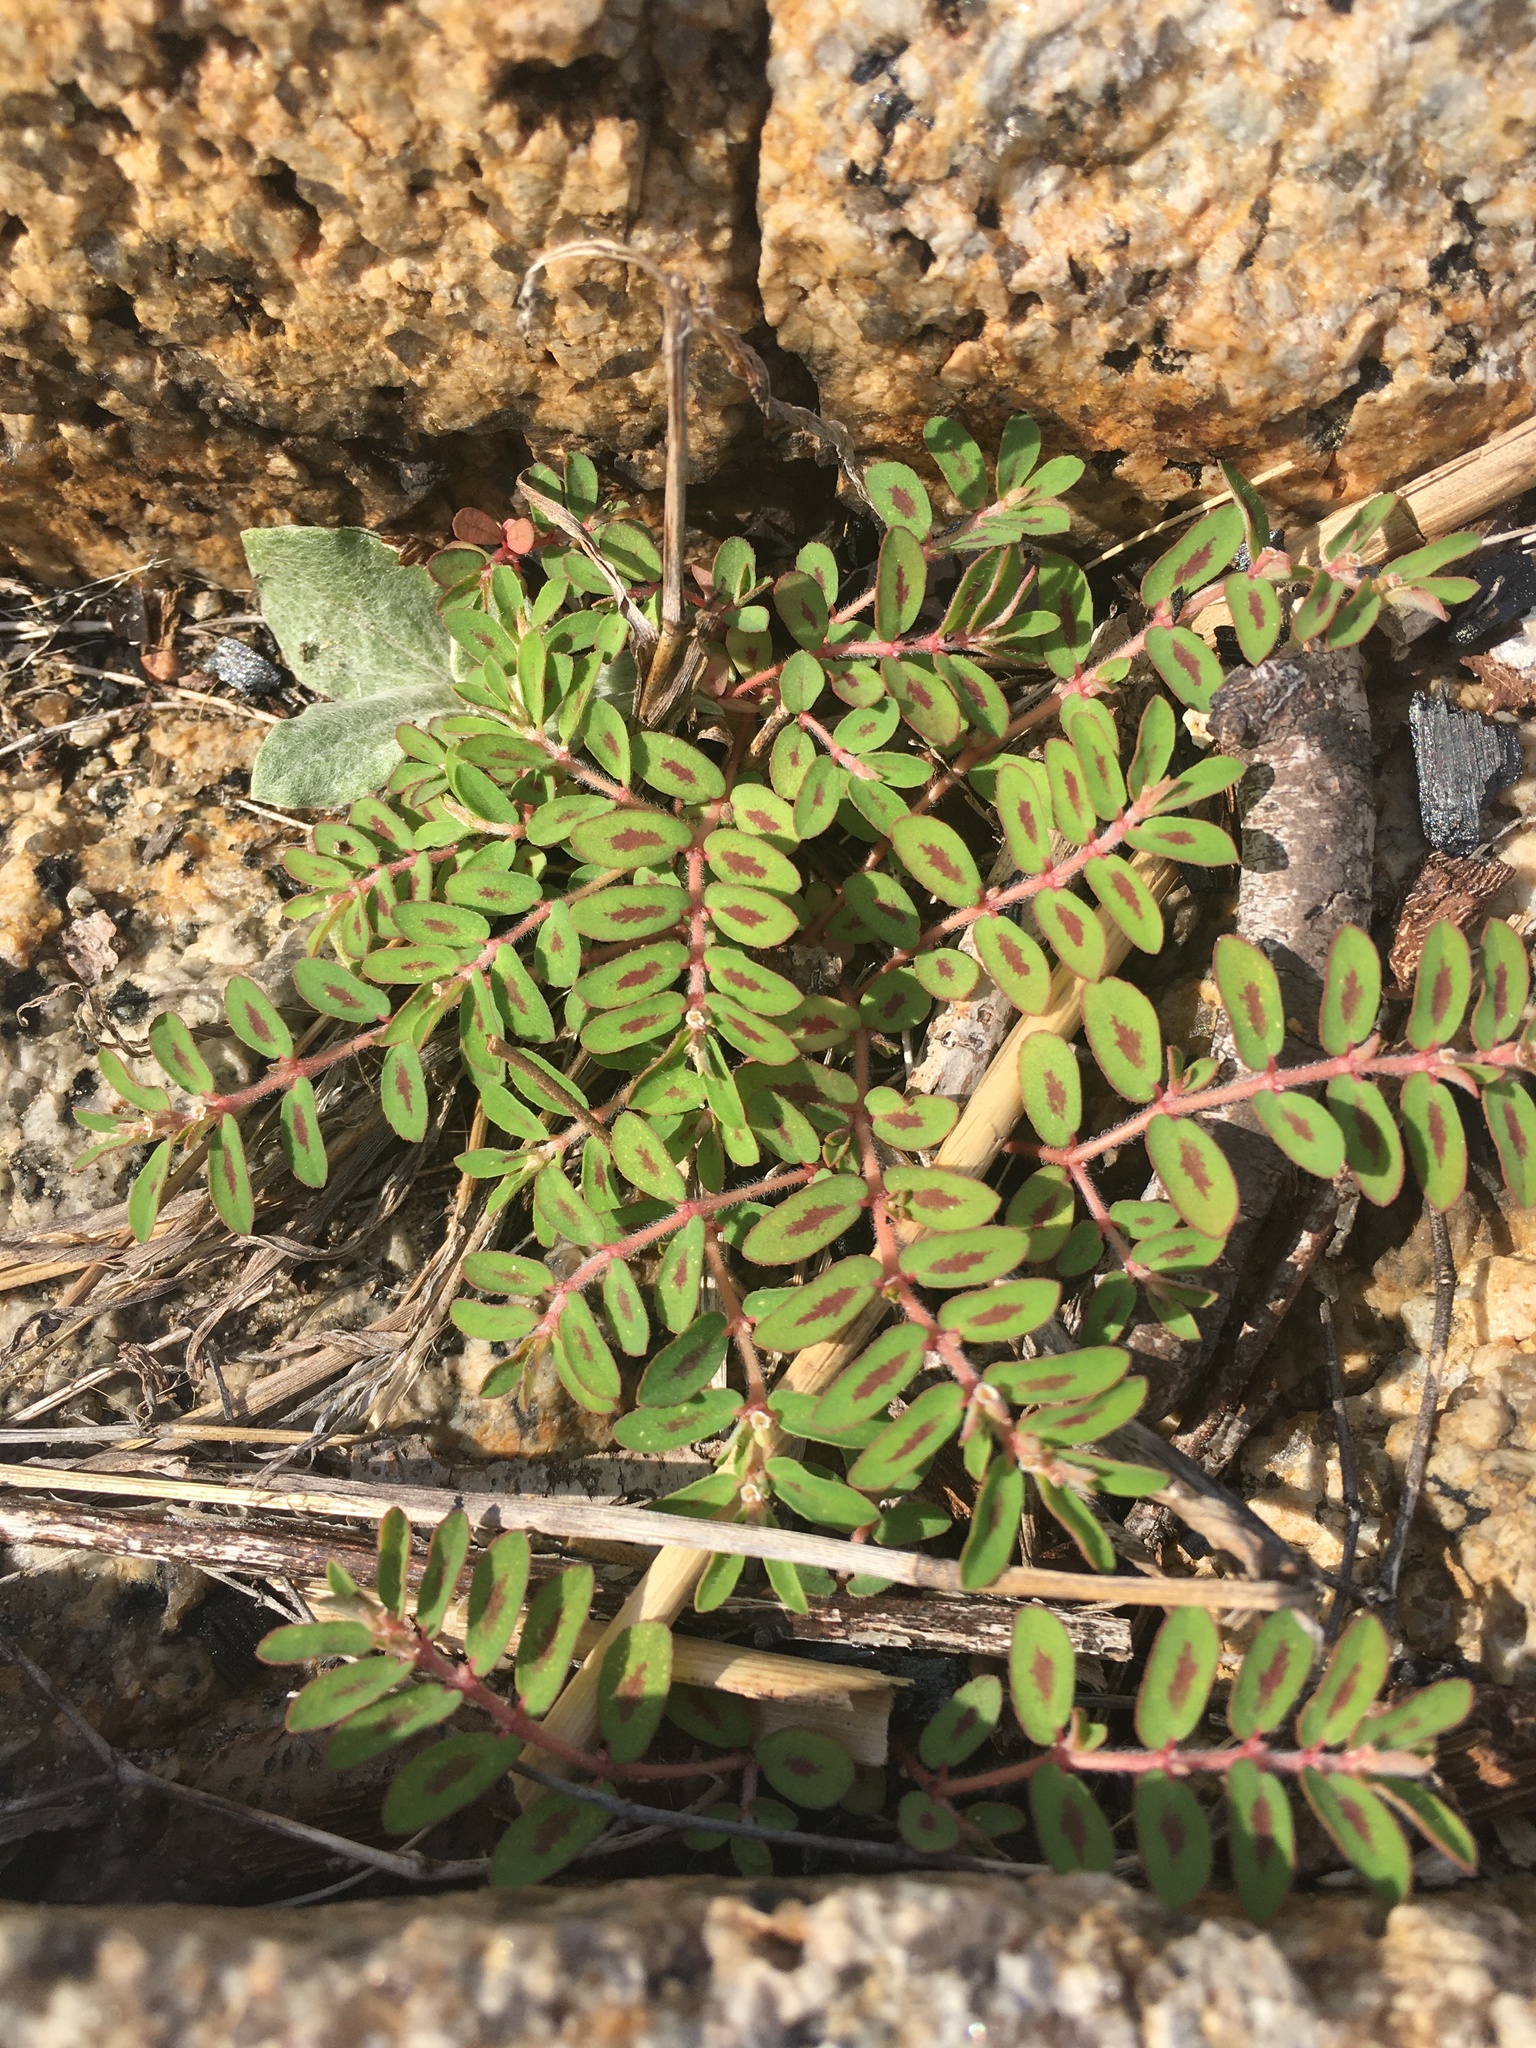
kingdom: Plantae
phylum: Tracheophyta
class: Magnoliopsida
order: Malpighiales
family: Euphorbiaceae
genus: Euphorbia
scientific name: Euphorbia maculata
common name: Spotted spurge
